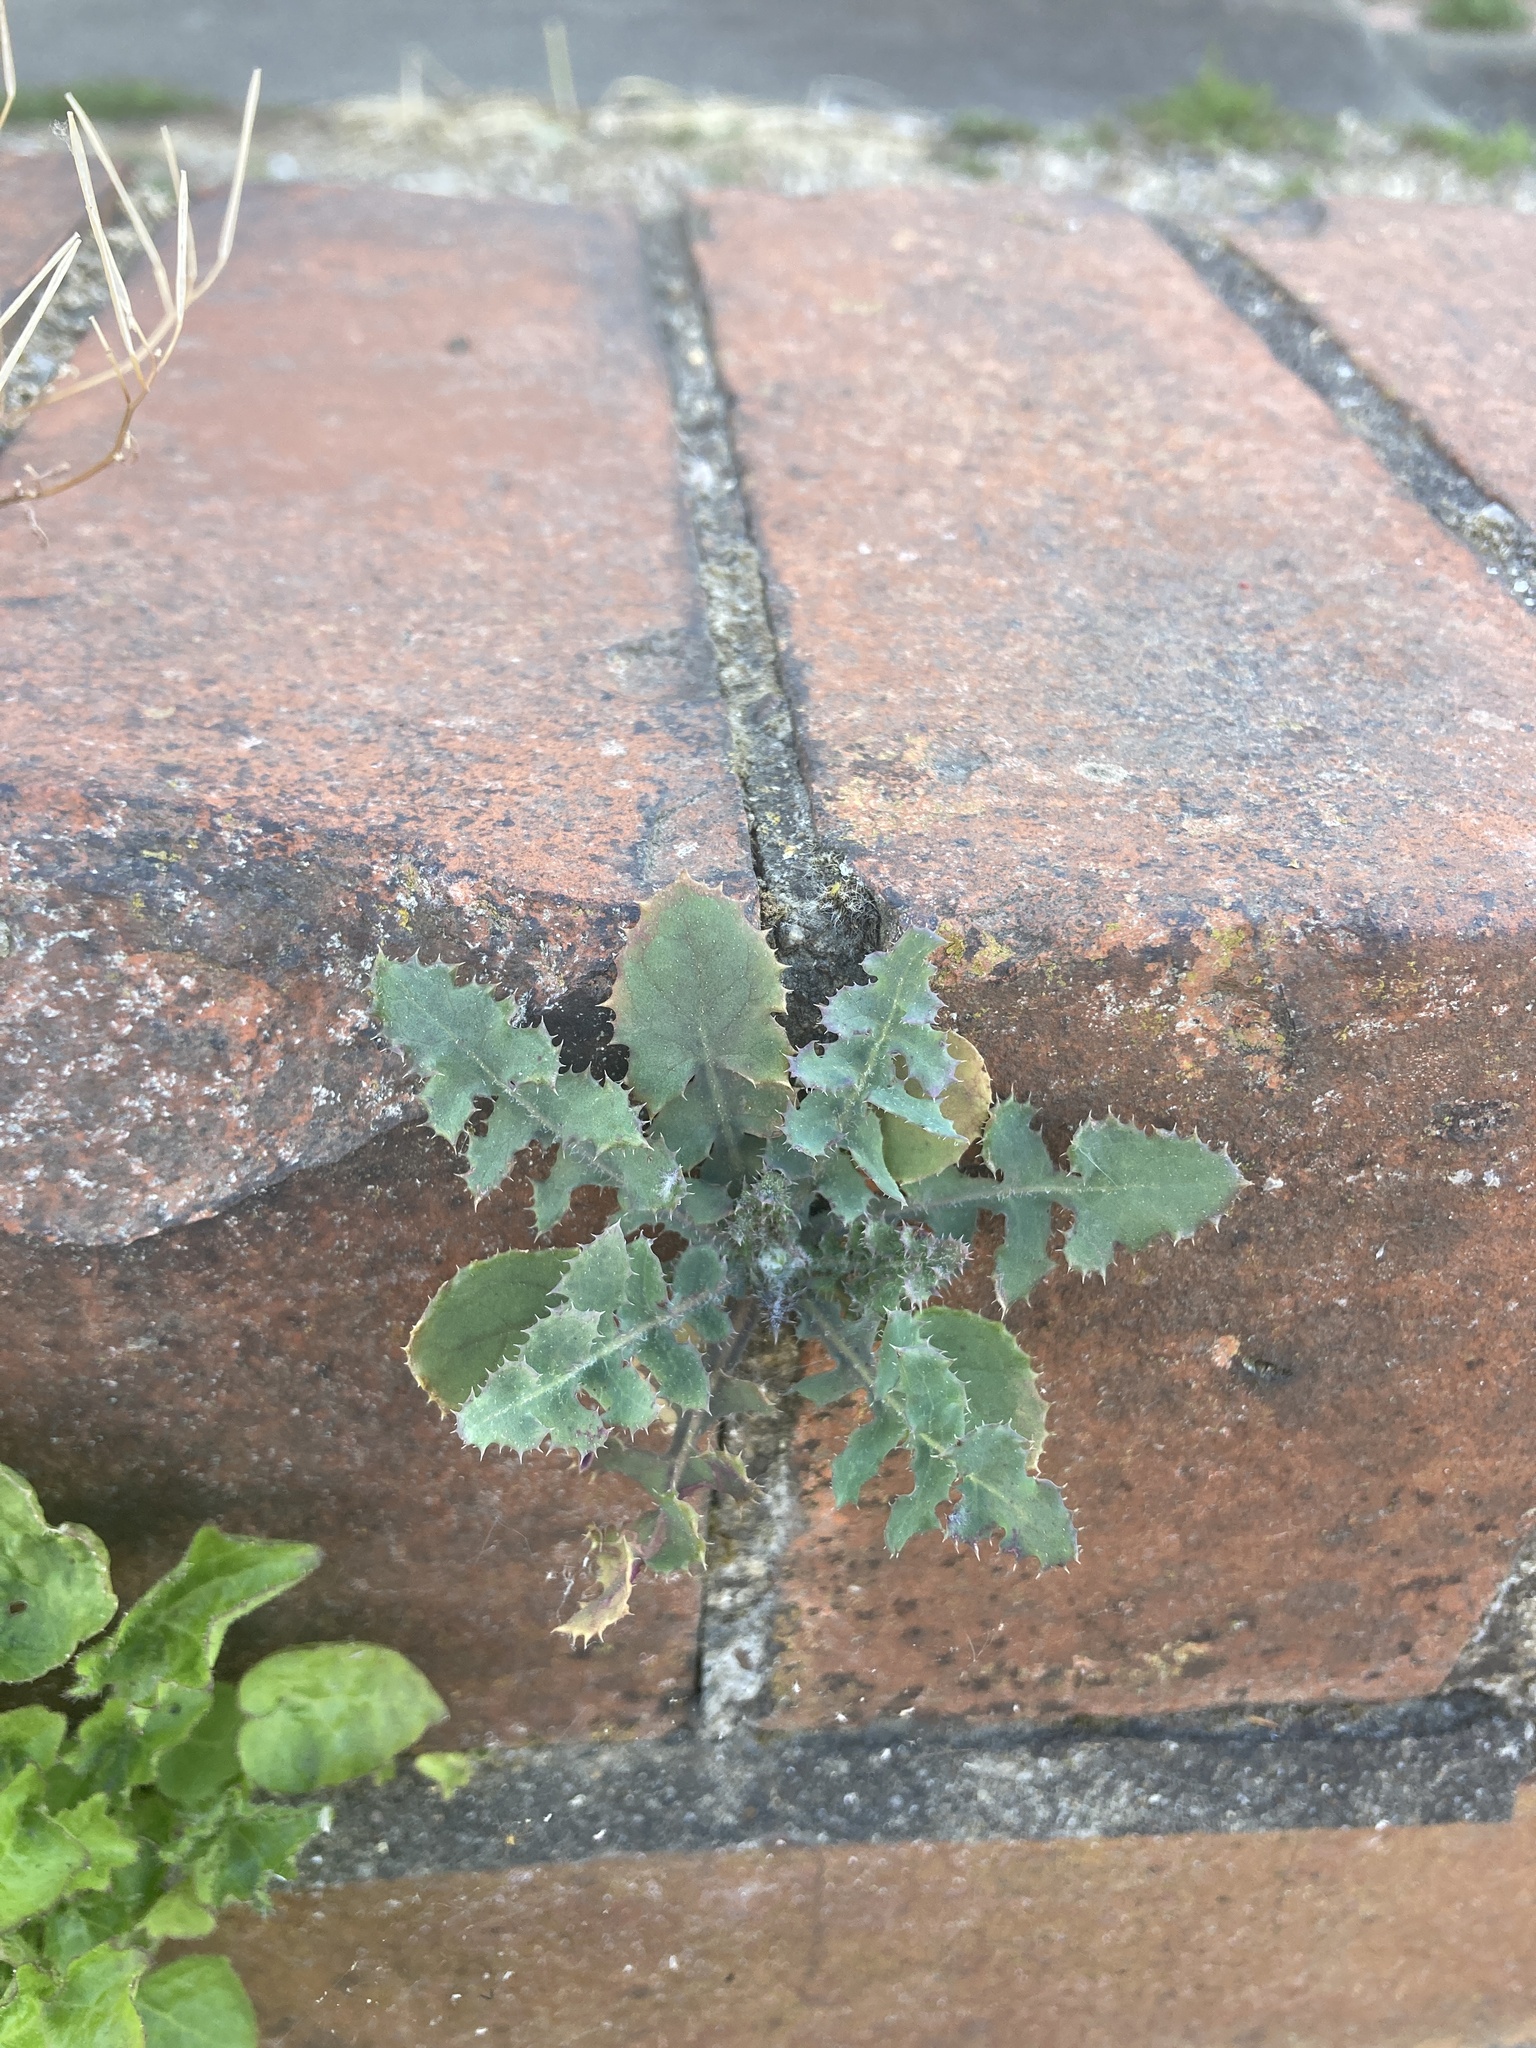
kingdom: Plantae
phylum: Tracheophyta
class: Magnoliopsida
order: Asterales
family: Asteraceae
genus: Sonchus
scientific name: Sonchus asper
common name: Prickly sow-thistle
